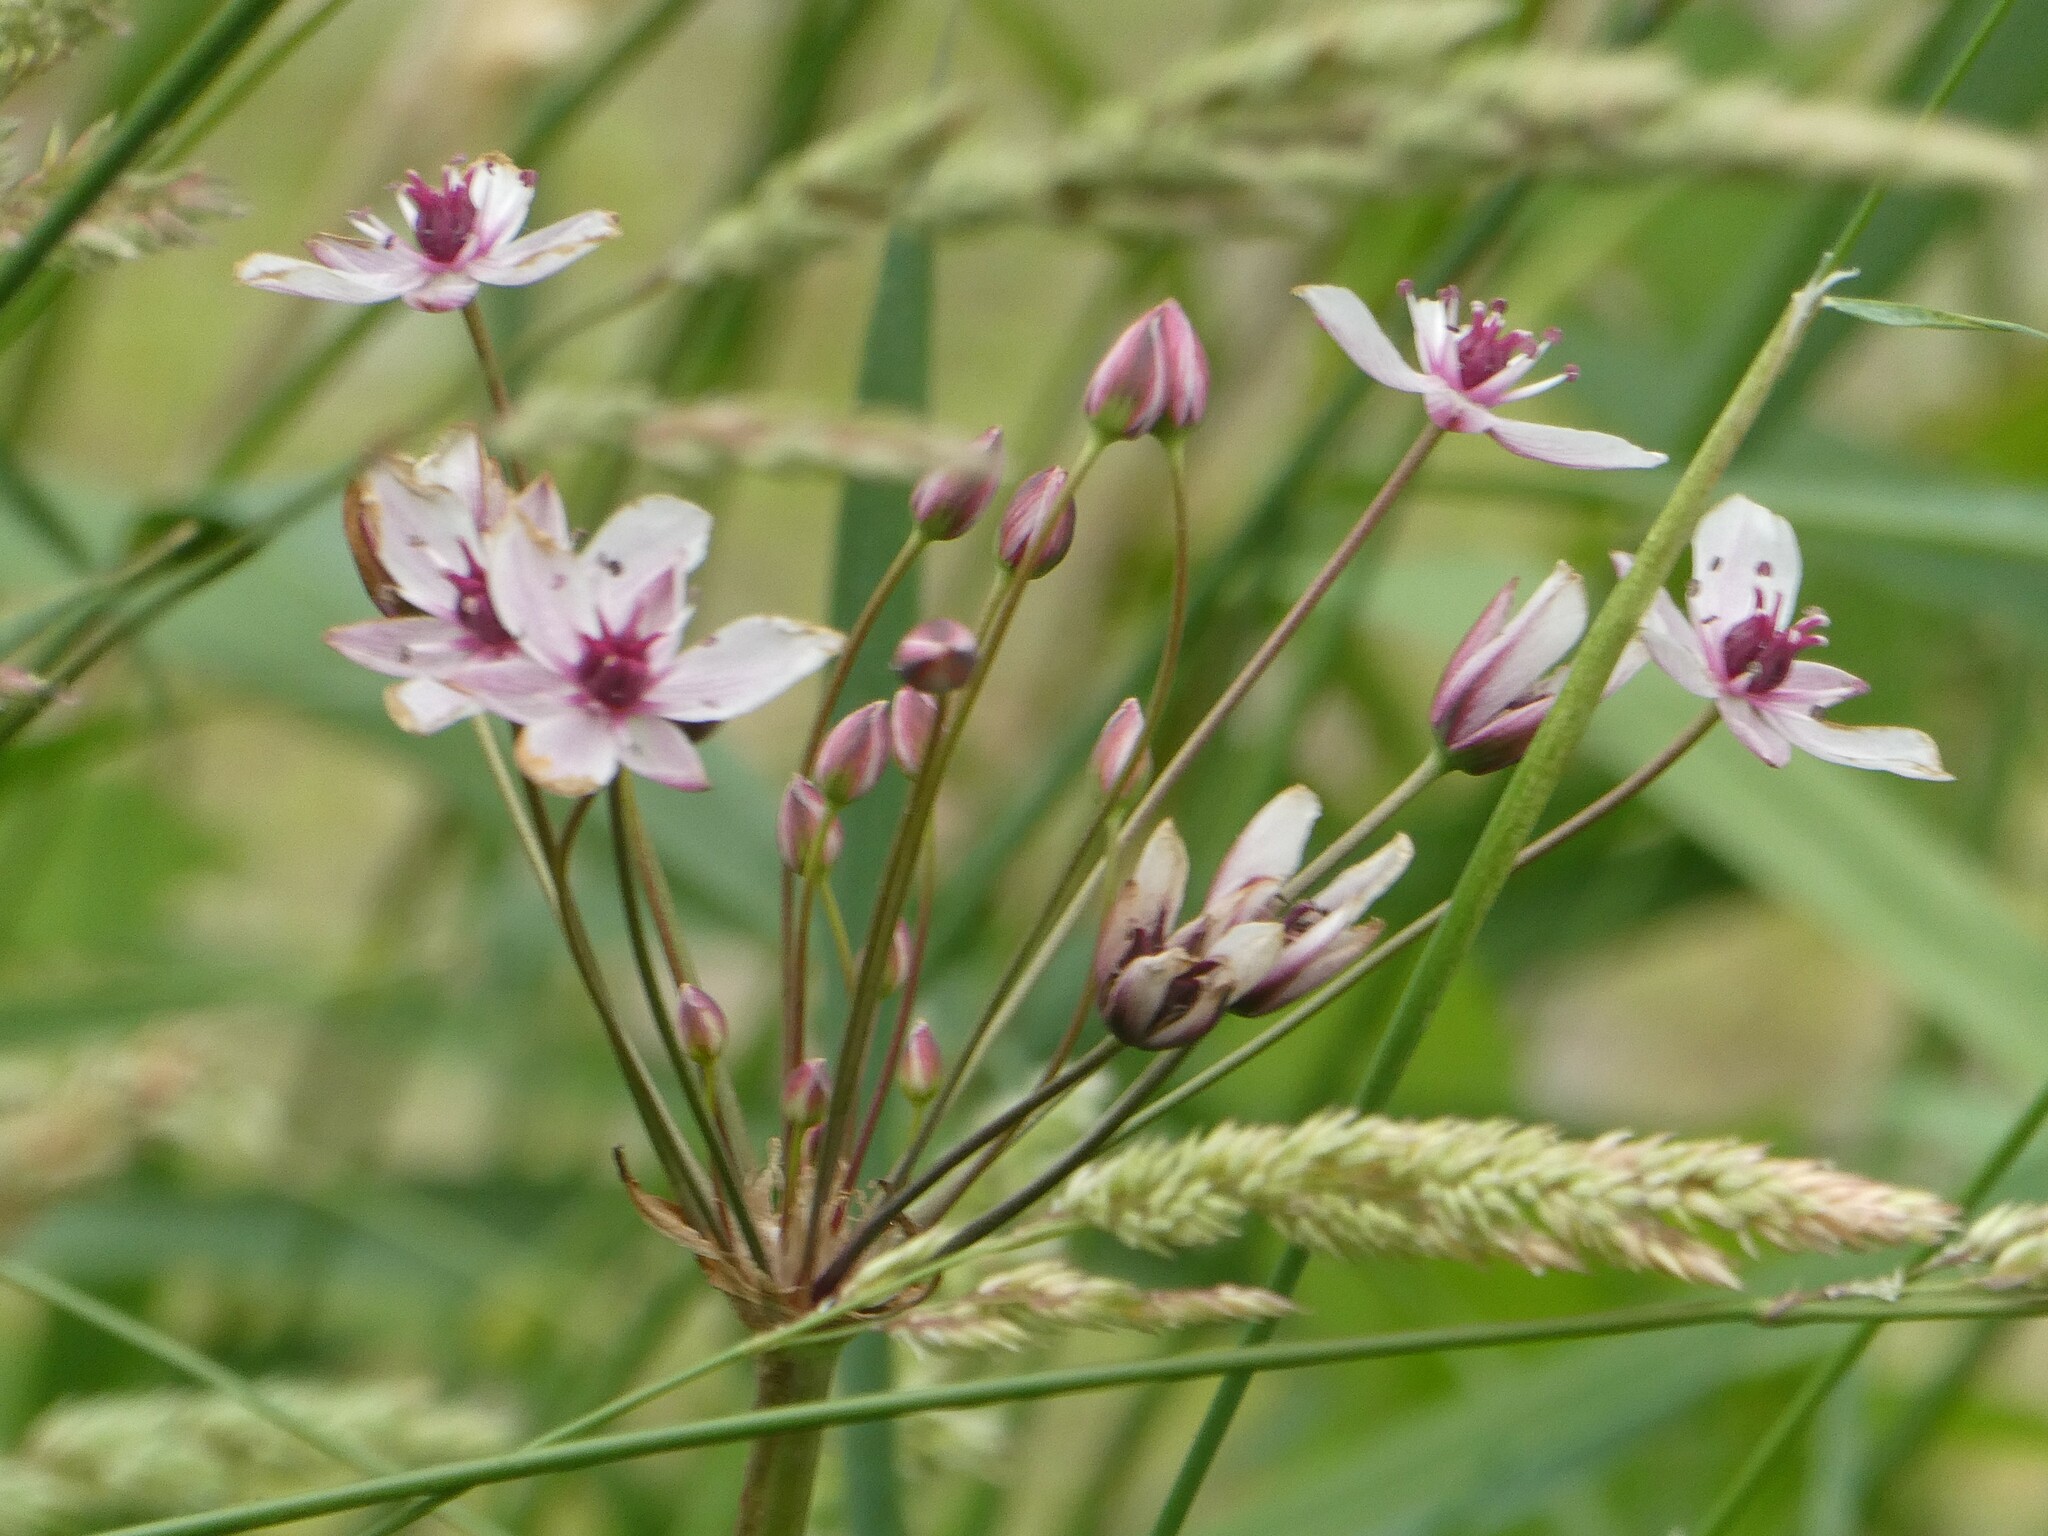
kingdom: Plantae
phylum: Tracheophyta
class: Liliopsida
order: Alismatales
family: Butomaceae
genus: Butomus
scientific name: Butomus umbellatus
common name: Flowering-rush
